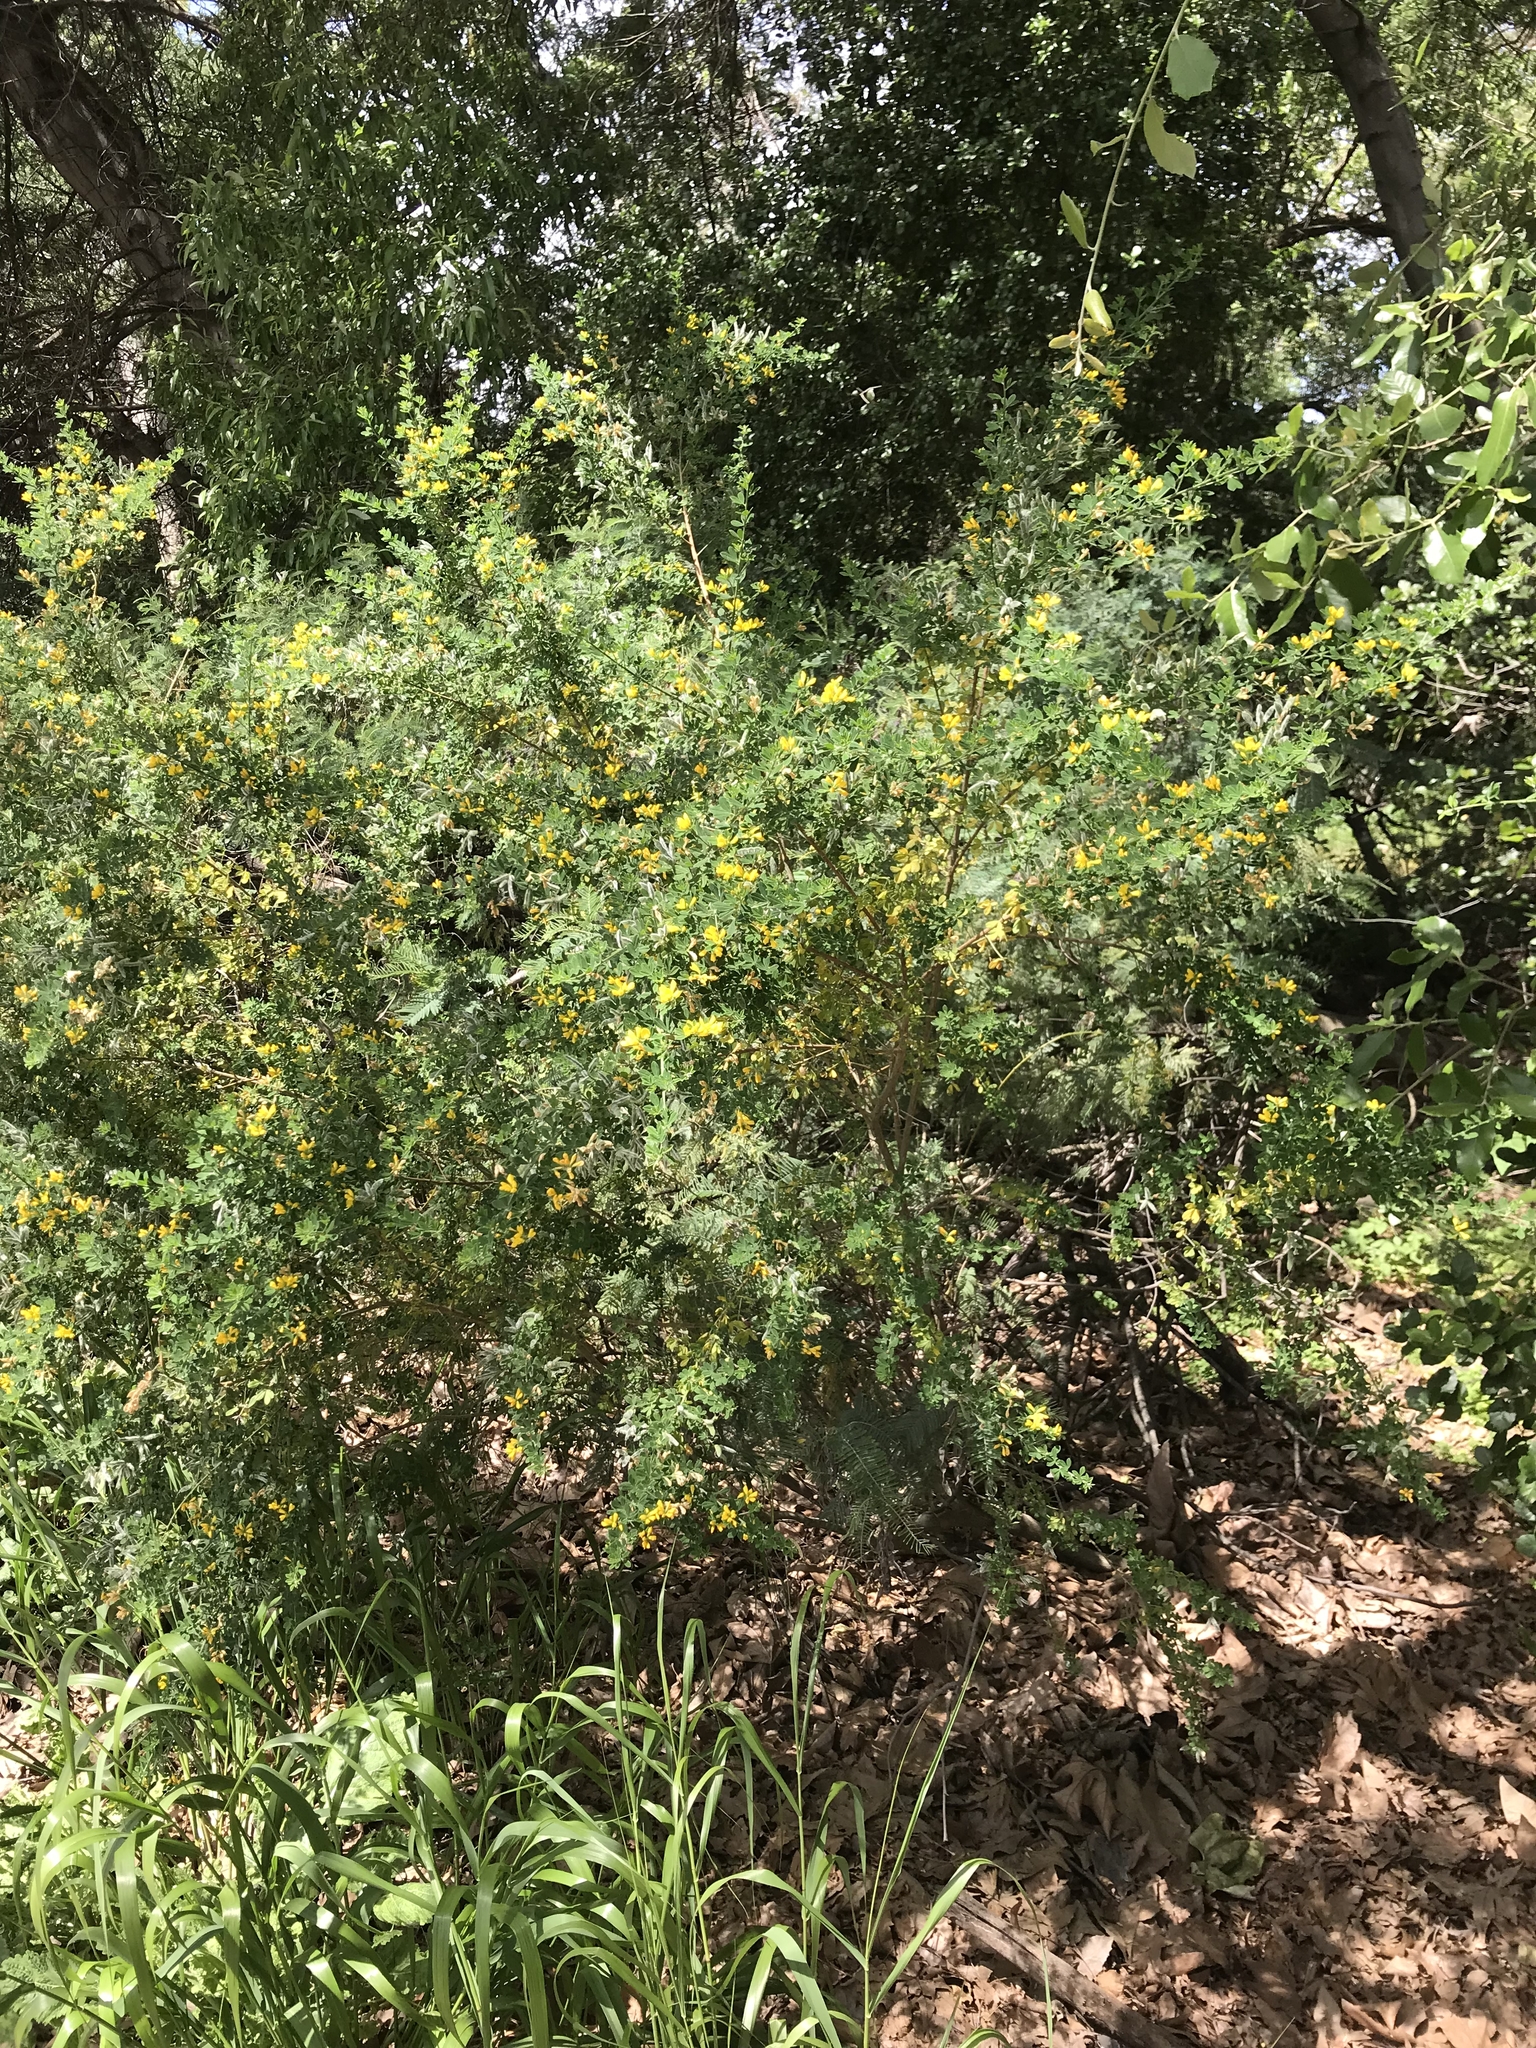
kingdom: Plantae
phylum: Tracheophyta
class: Magnoliopsida
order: Fabales
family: Fabaceae
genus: Genista
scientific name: Genista monspessulana
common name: Montpellier broom
